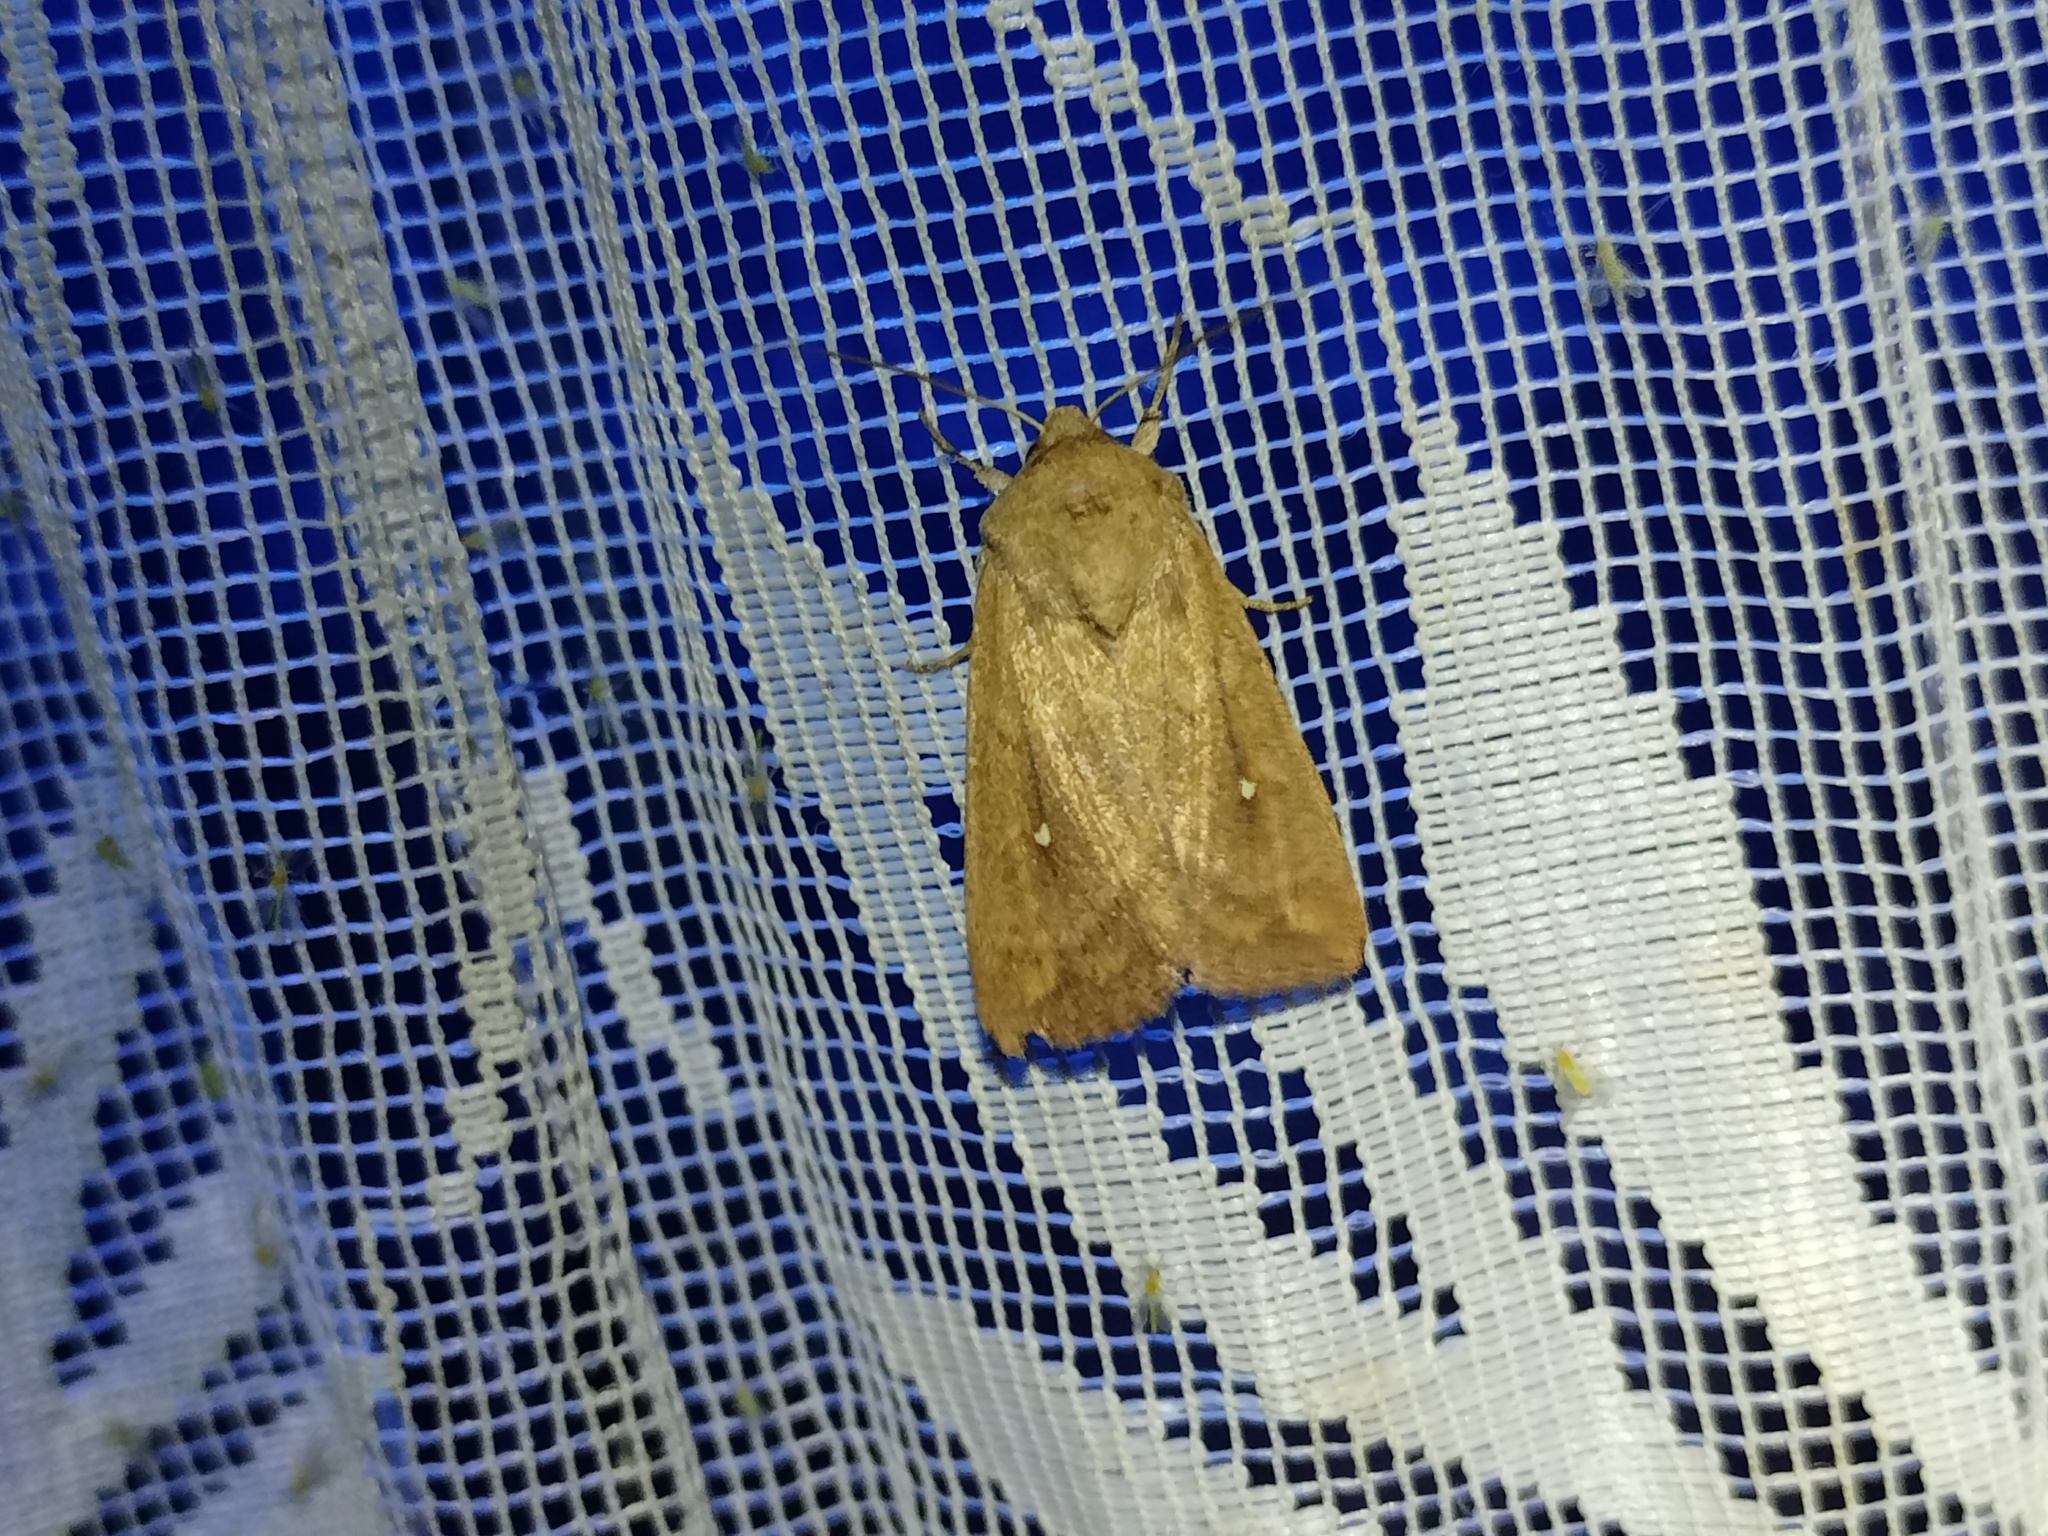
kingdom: Animalia
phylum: Arthropoda
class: Insecta
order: Lepidoptera
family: Noctuidae
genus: Mythimna
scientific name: Mythimna albipuncta
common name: White-point
